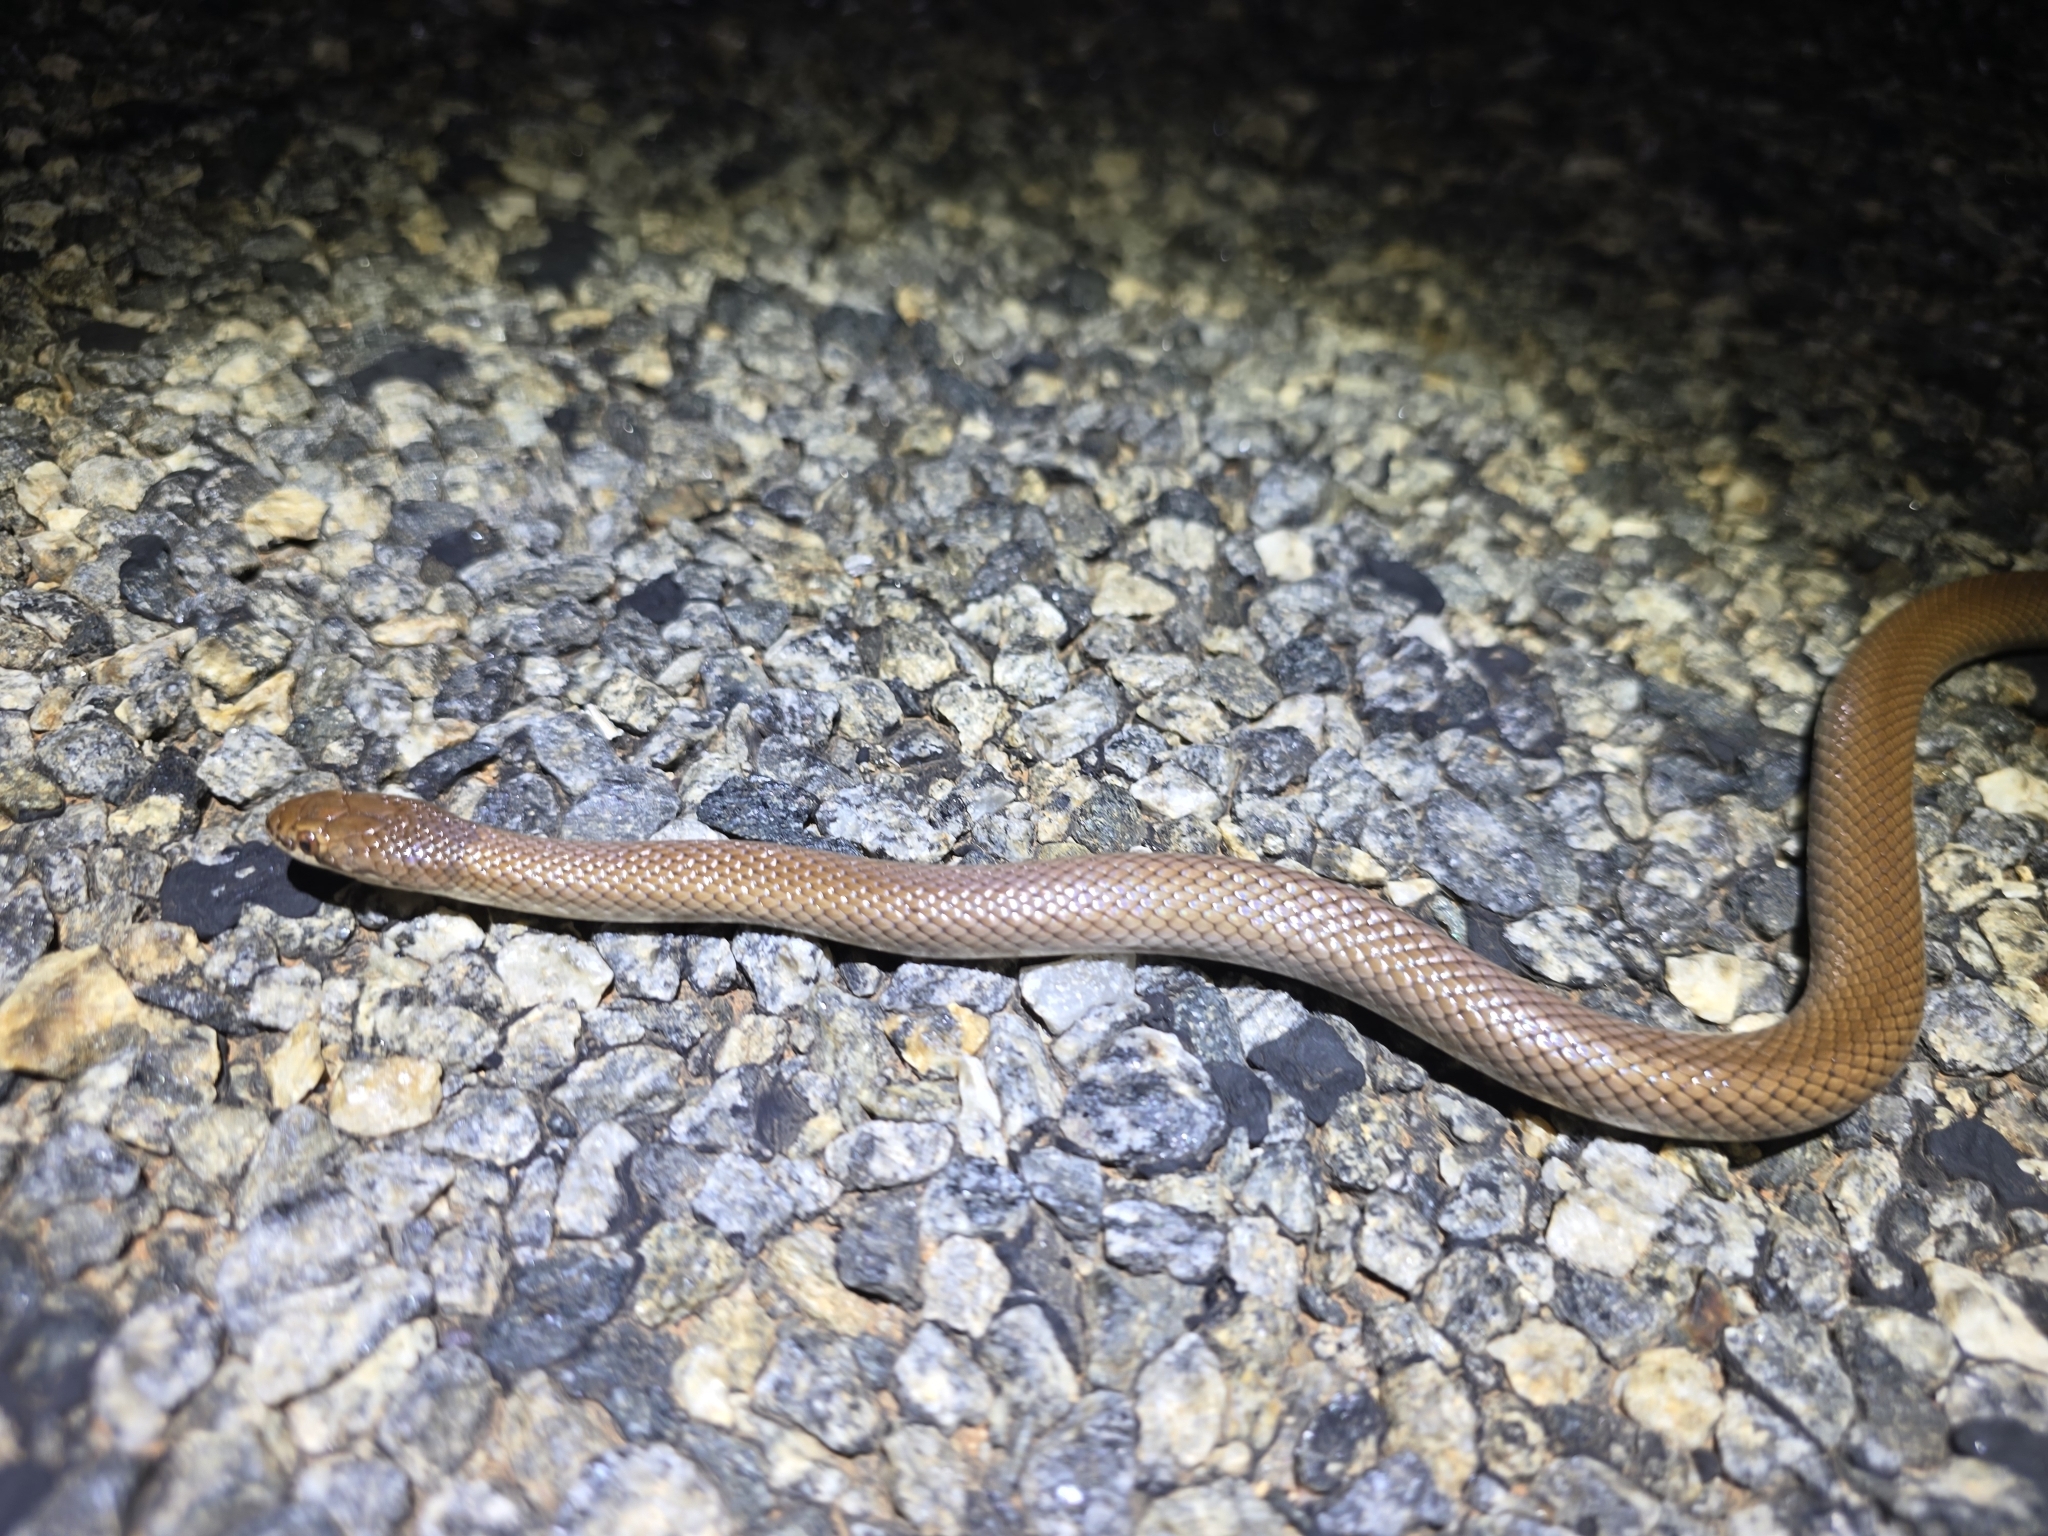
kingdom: Animalia
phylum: Chordata
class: Squamata
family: Elapidae
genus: Suta
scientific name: Suta suta
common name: Curl snake
